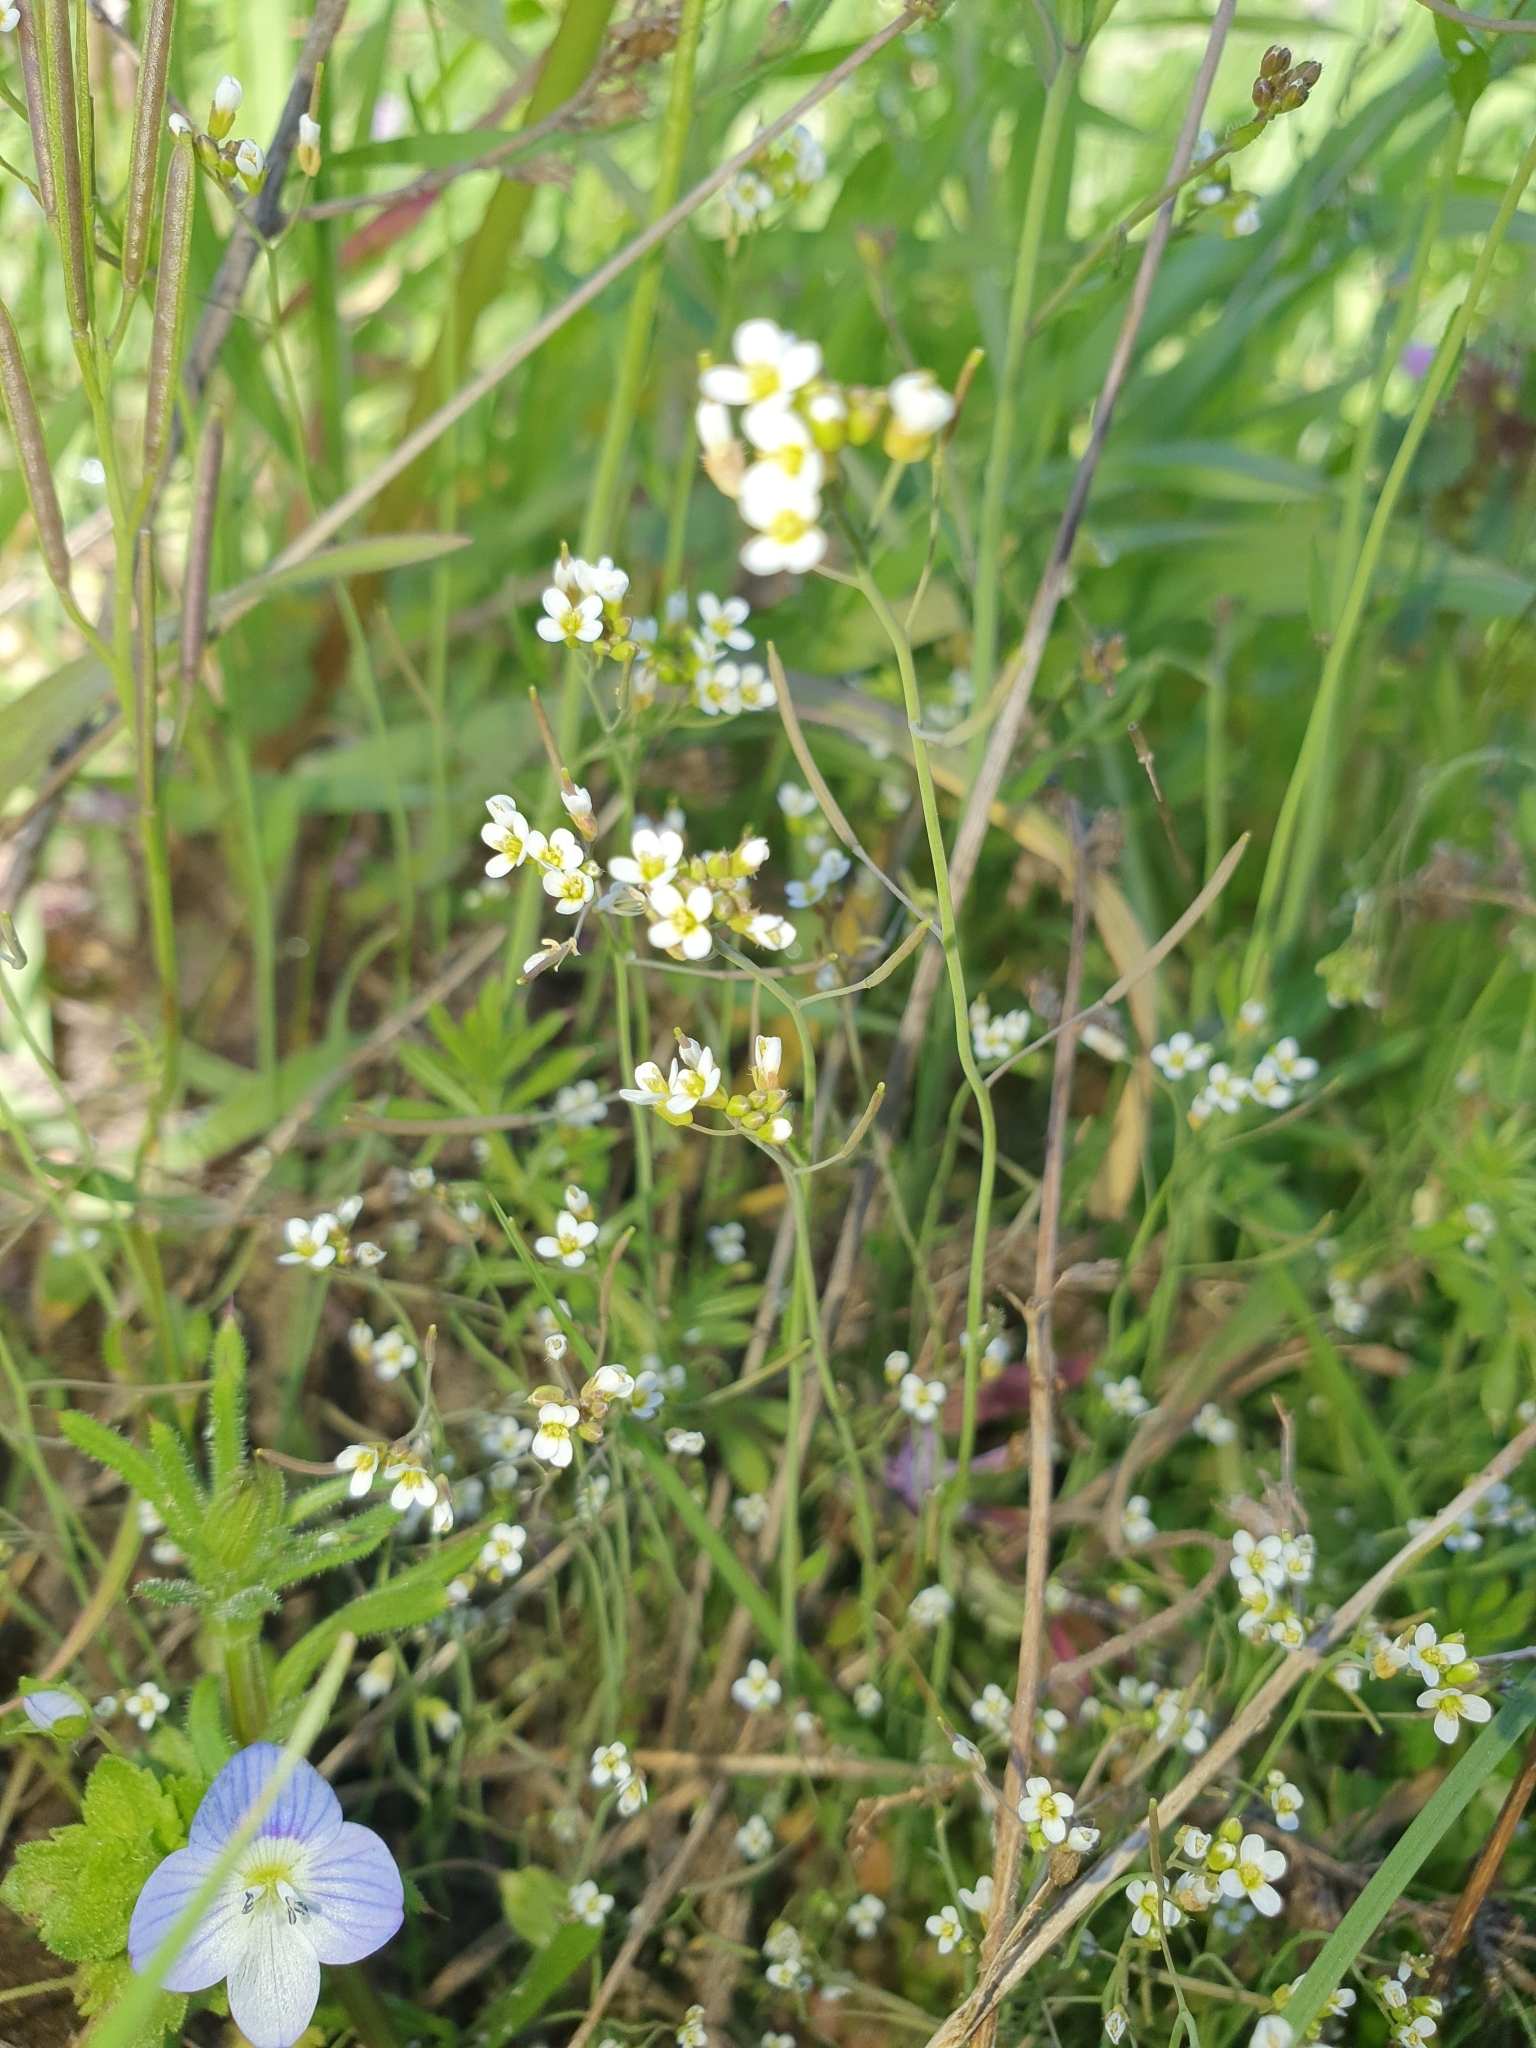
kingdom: Plantae
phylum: Tracheophyta
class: Magnoliopsida
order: Brassicales
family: Brassicaceae
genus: Arabidopsis
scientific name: Arabidopsis thaliana
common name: Thale cress
